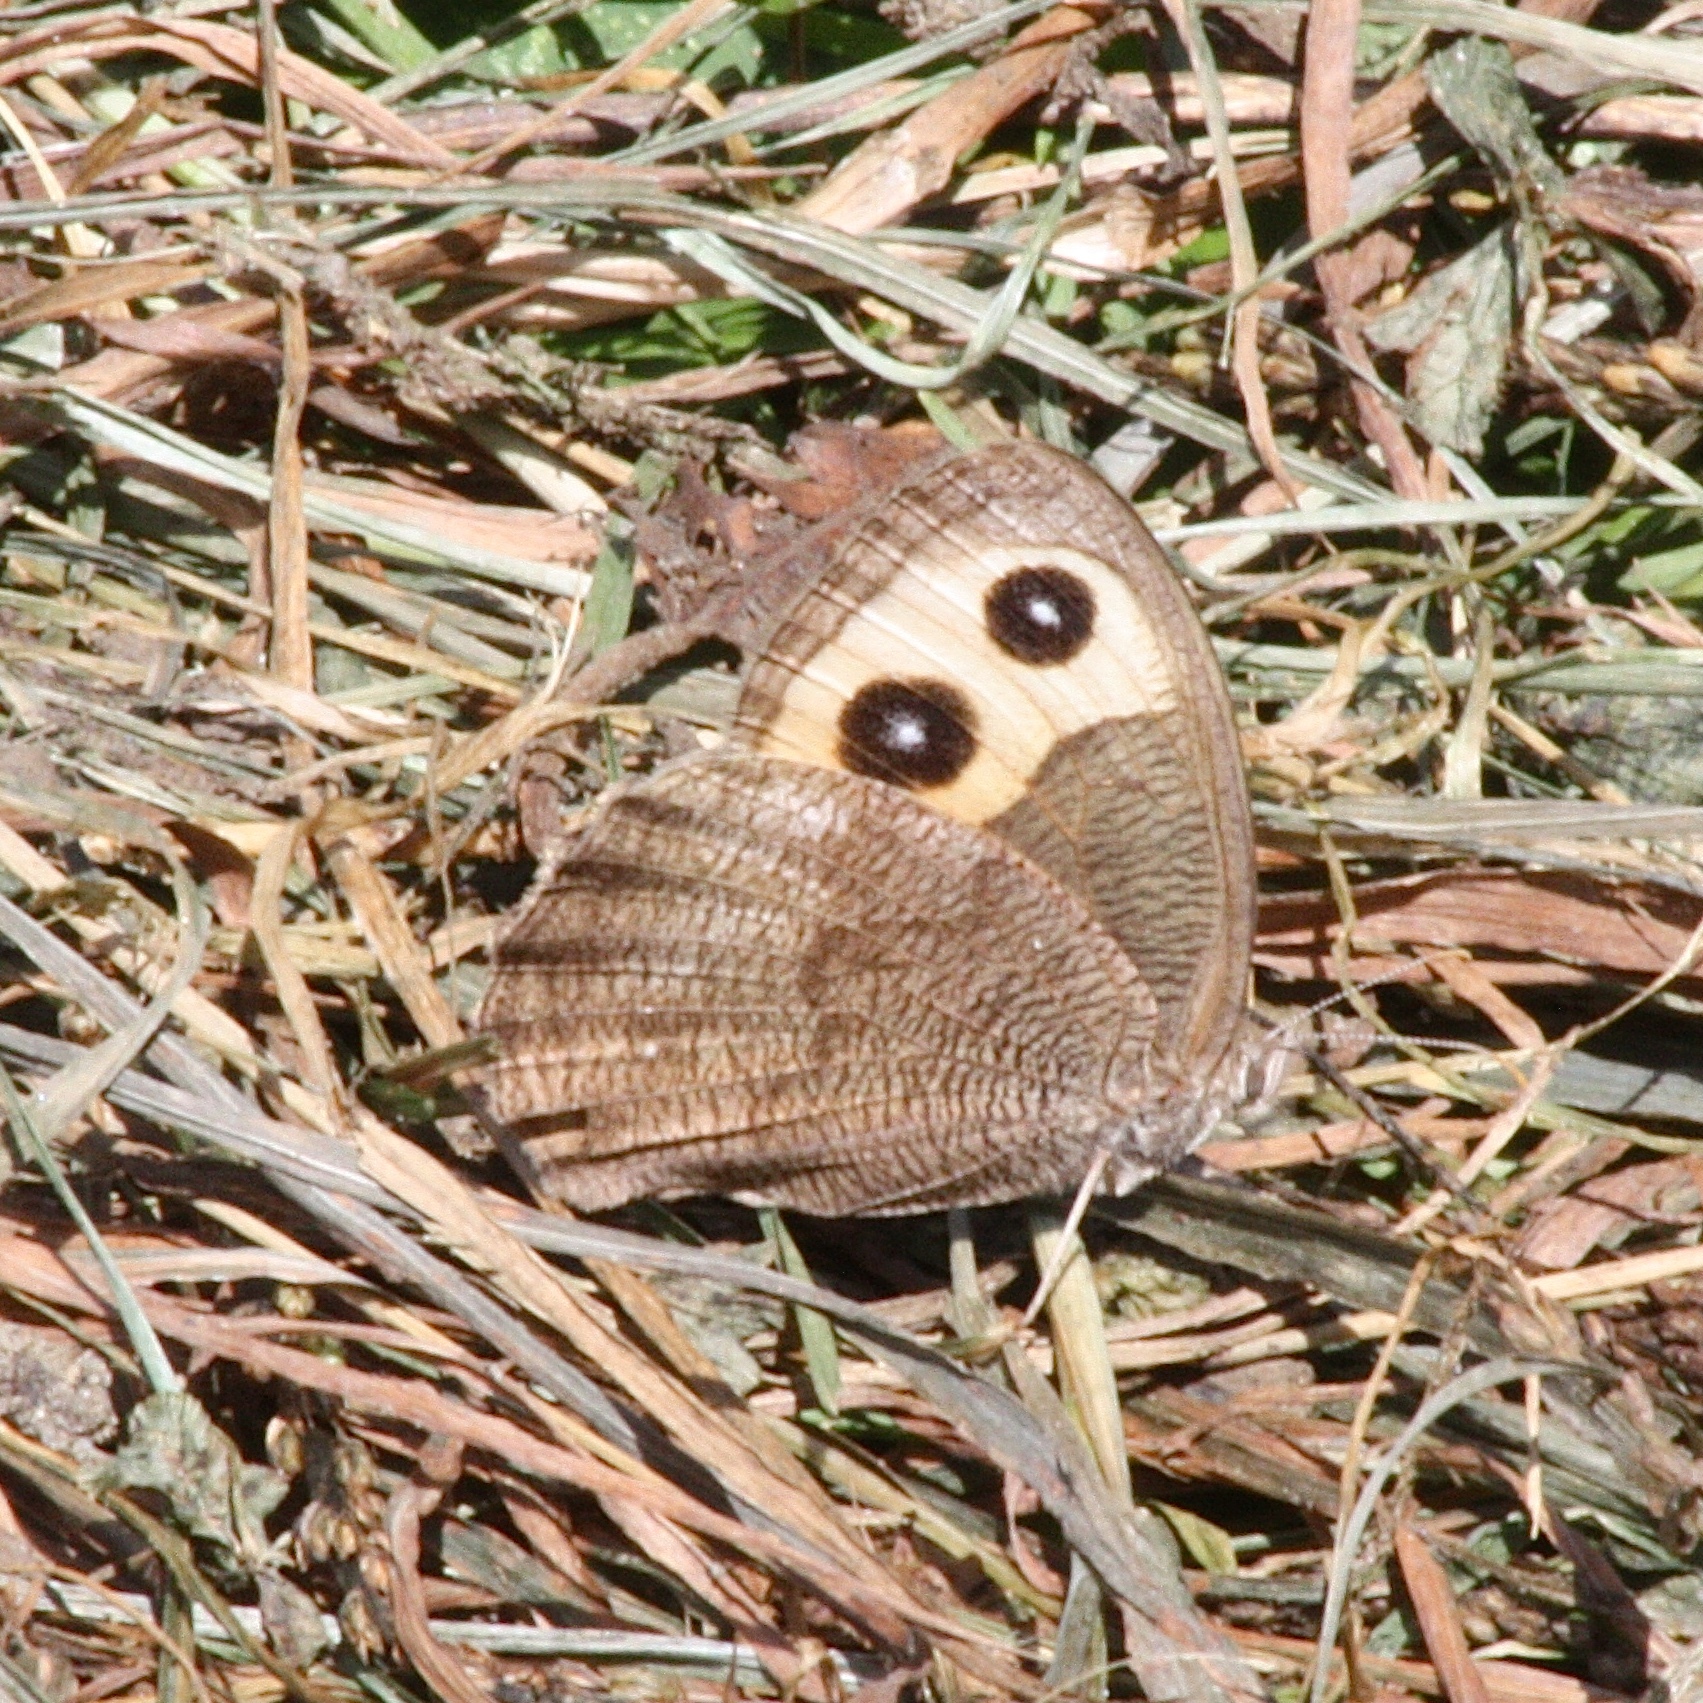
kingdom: Animalia
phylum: Arthropoda
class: Insecta
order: Lepidoptera
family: Nymphalidae
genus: Cercyonis
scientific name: Cercyonis pegala
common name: Common wood-nymph
